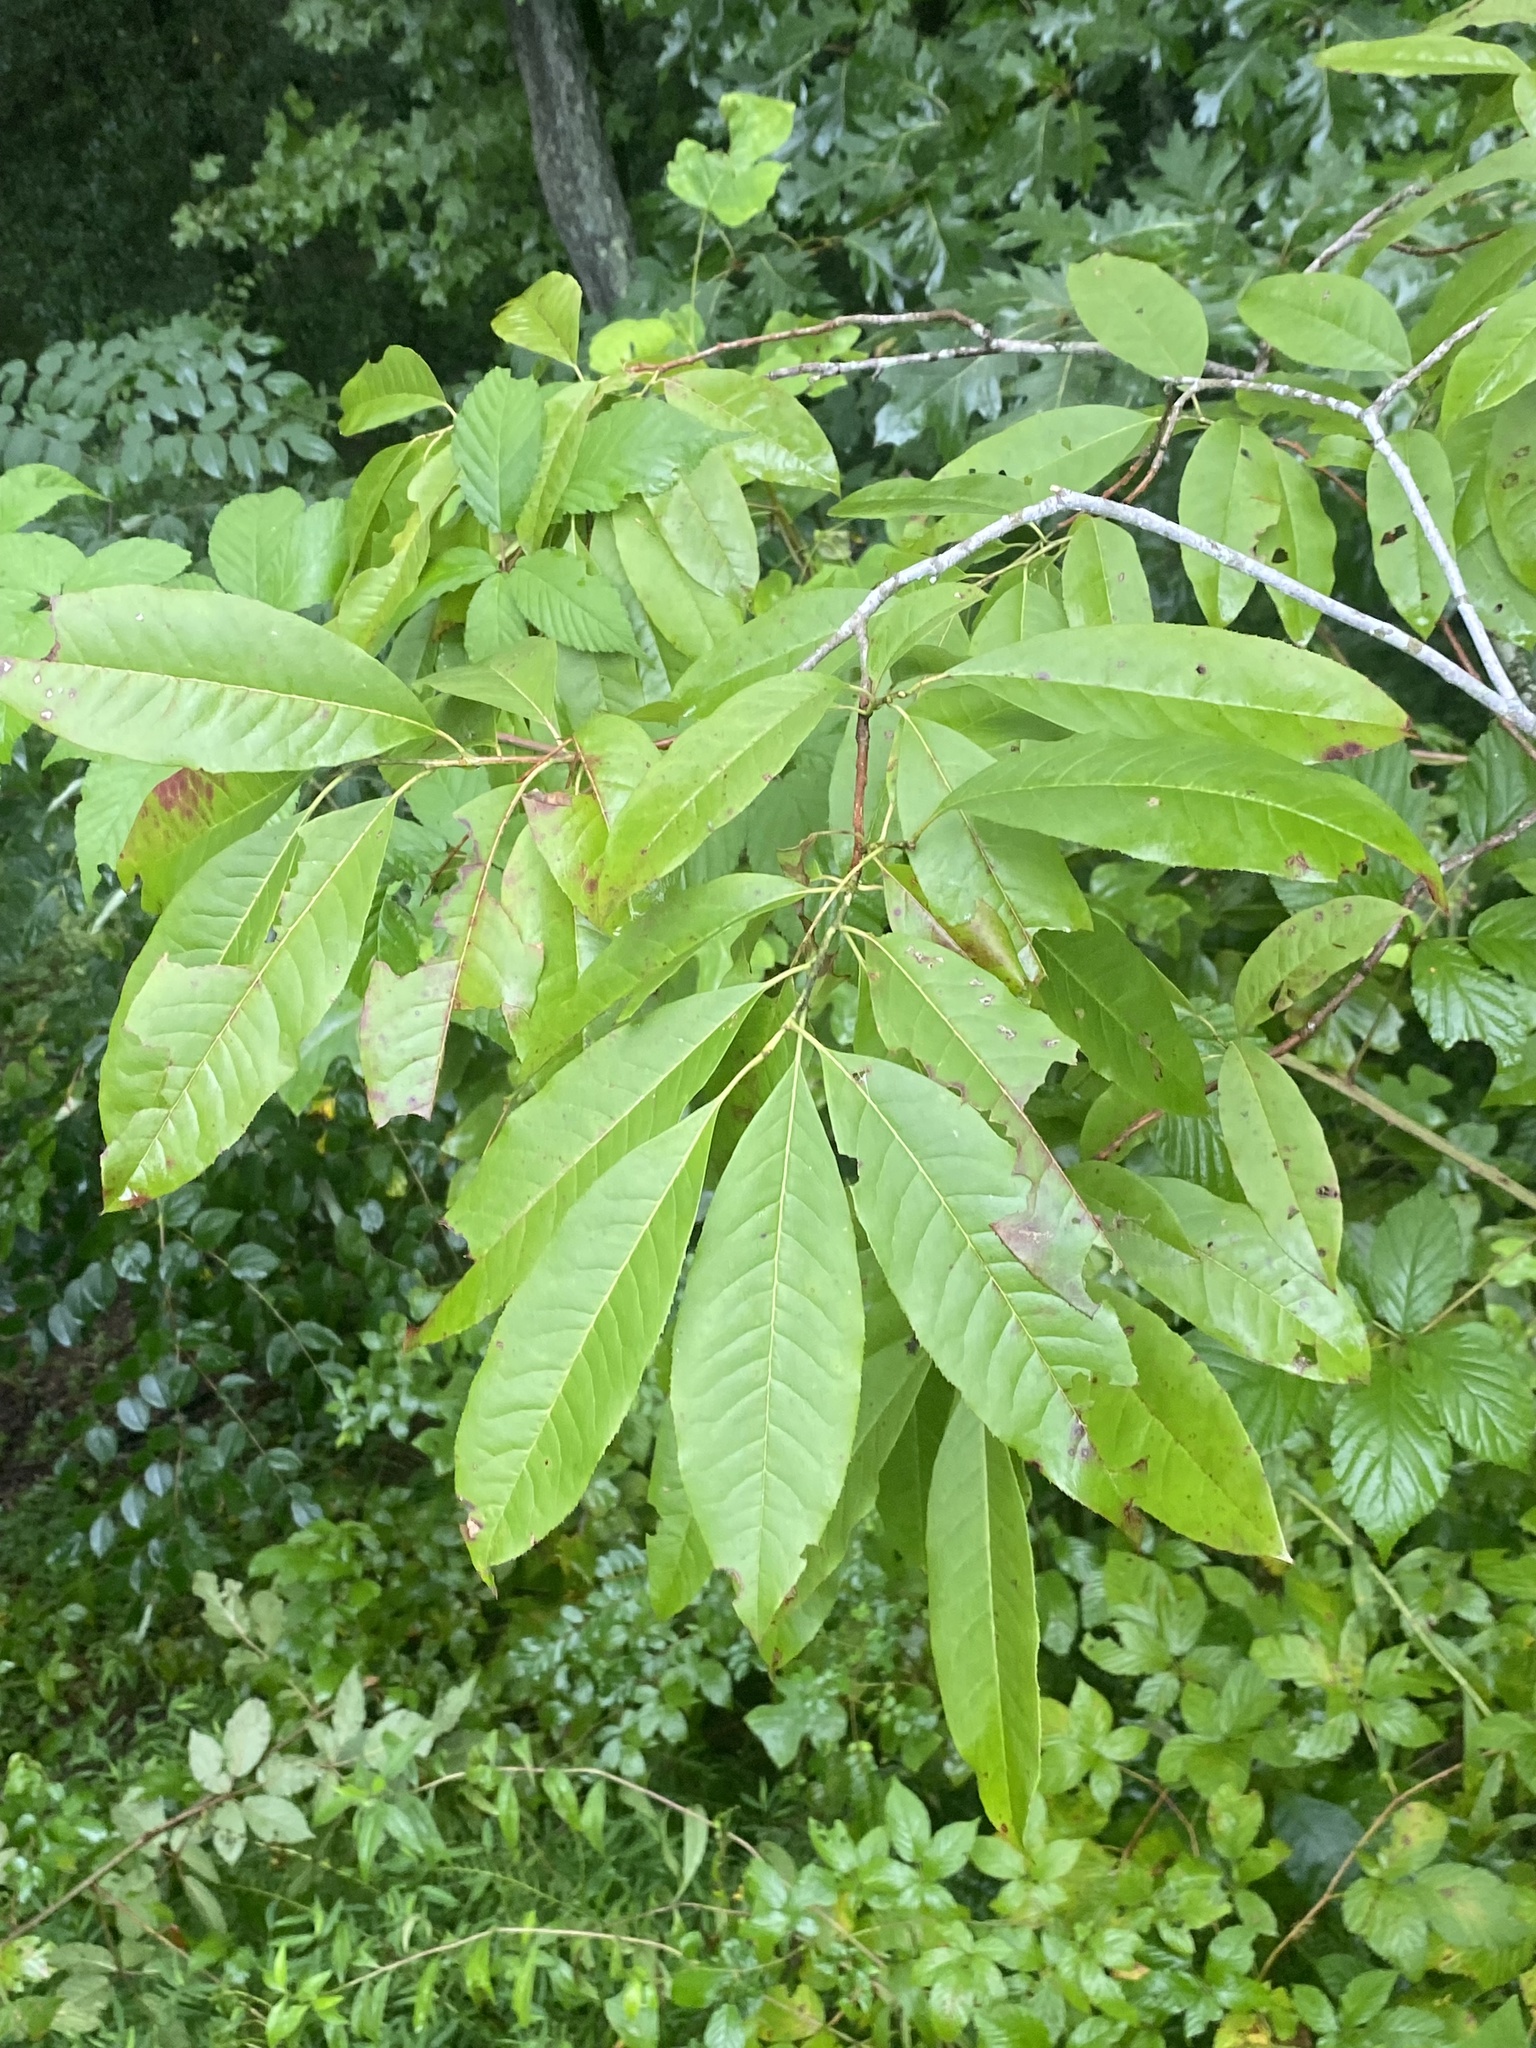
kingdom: Plantae
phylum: Tracheophyta
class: Magnoliopsida
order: Ericales
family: Ericaceae
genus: Oxydendrum
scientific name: Oxydendrum arboreum
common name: Sourwood
